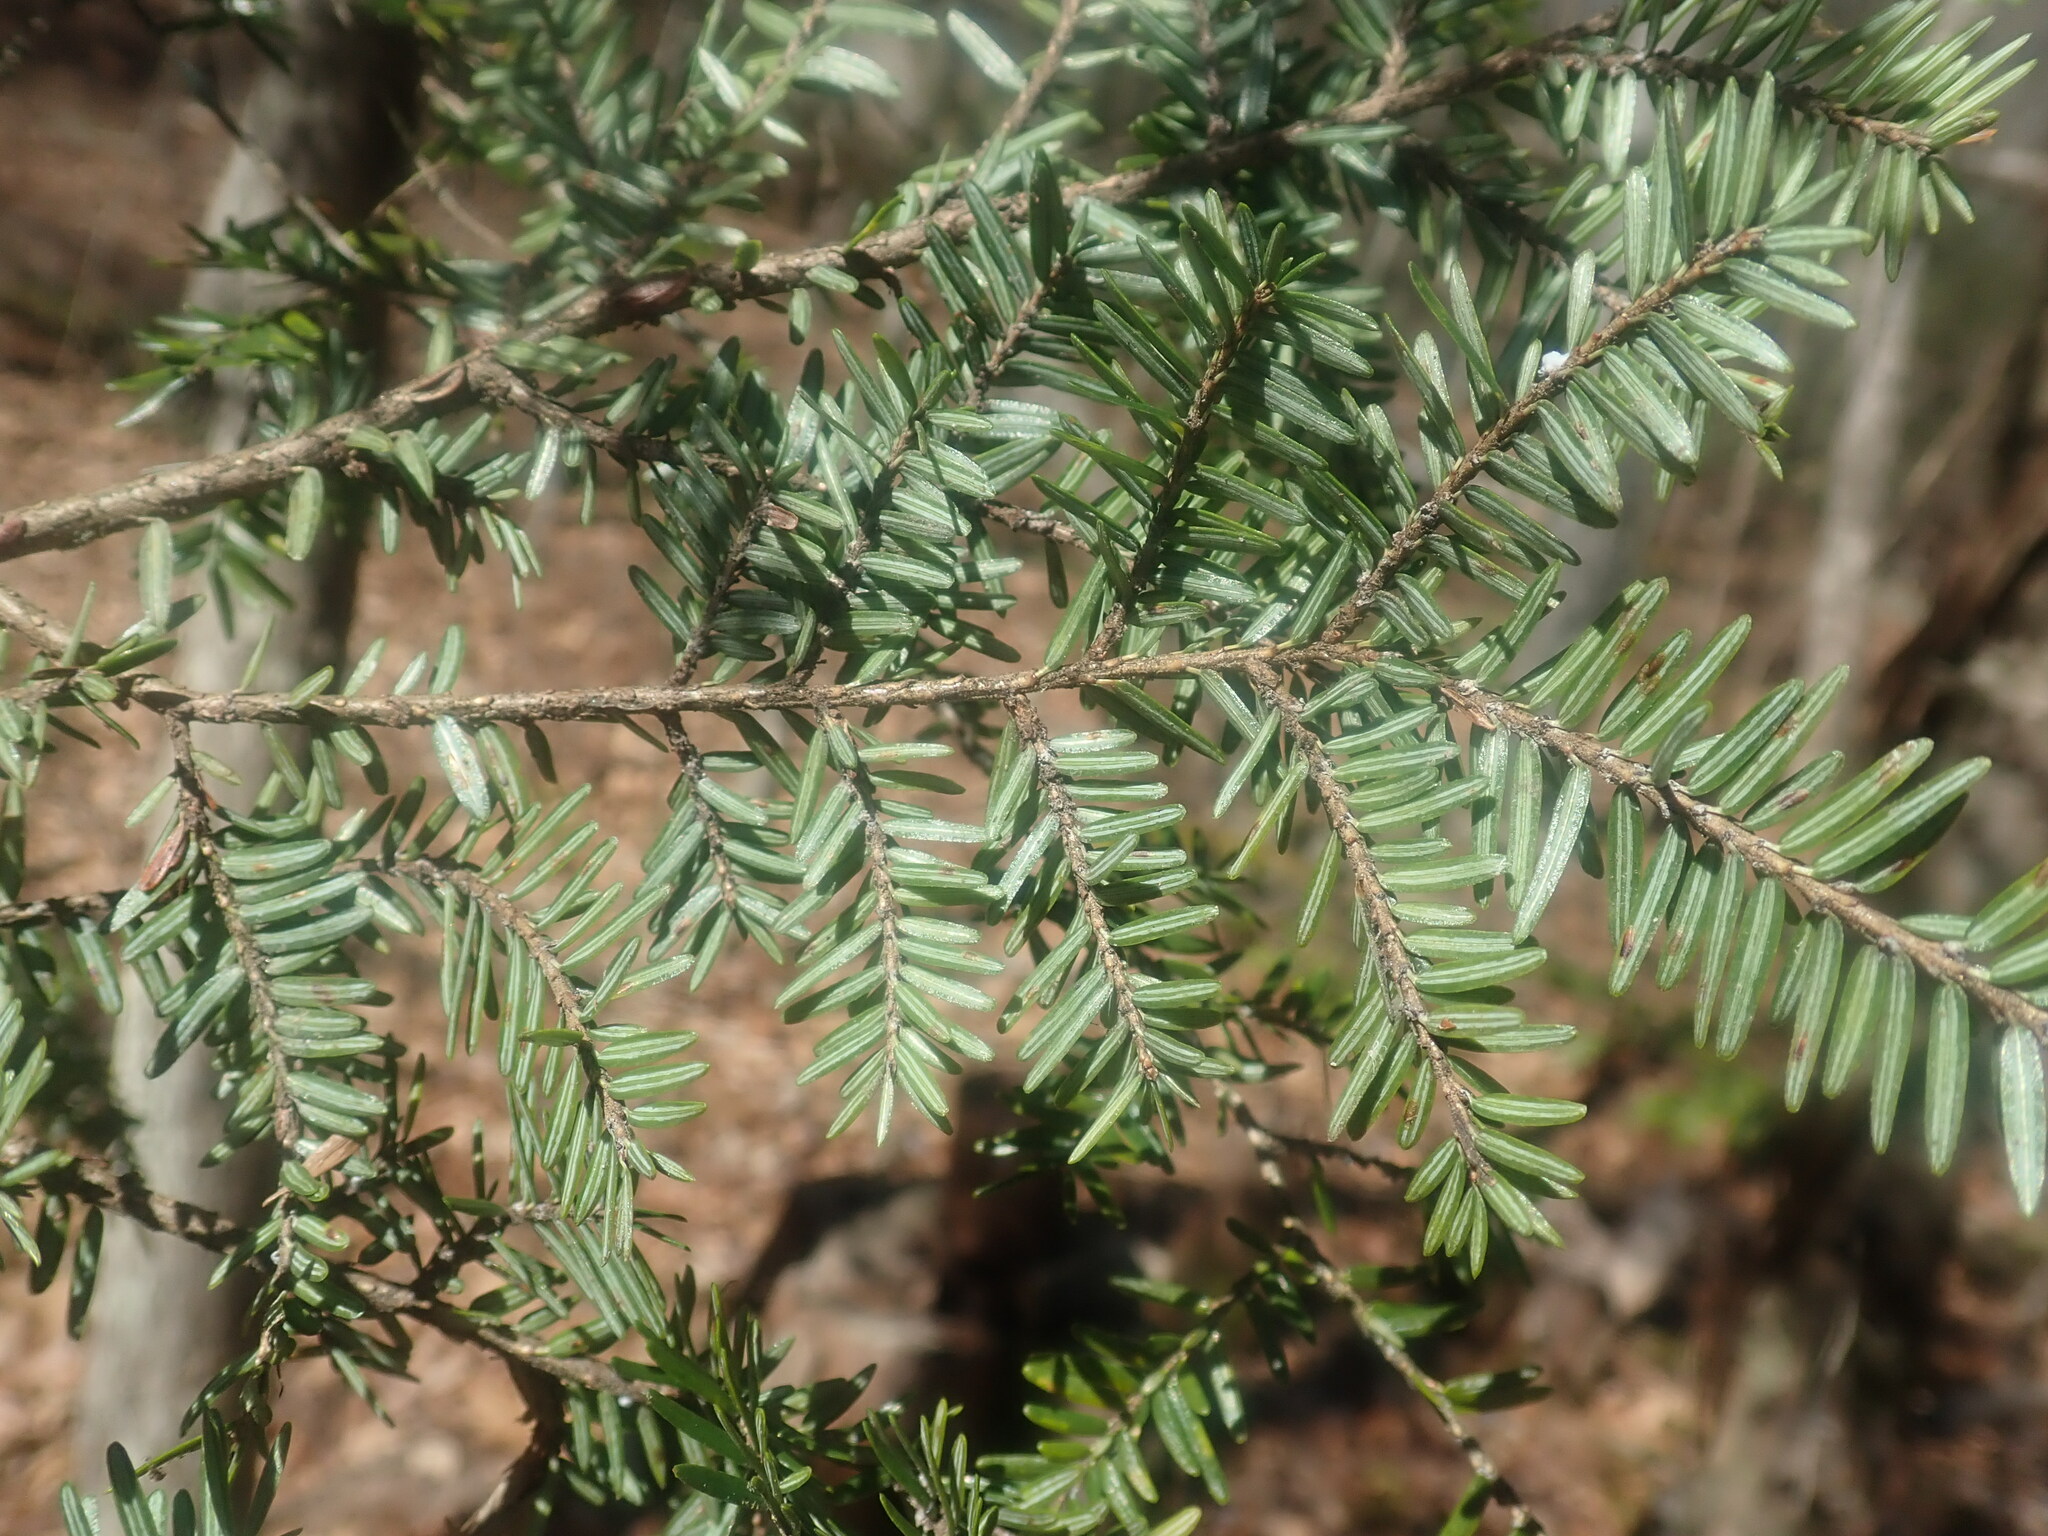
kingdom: Plantae
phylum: Tracheophyta
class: Pinopsida
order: Pinales
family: Pinaceae
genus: Tsuga
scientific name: Tsuga canadensis
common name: Eastern hemlock
